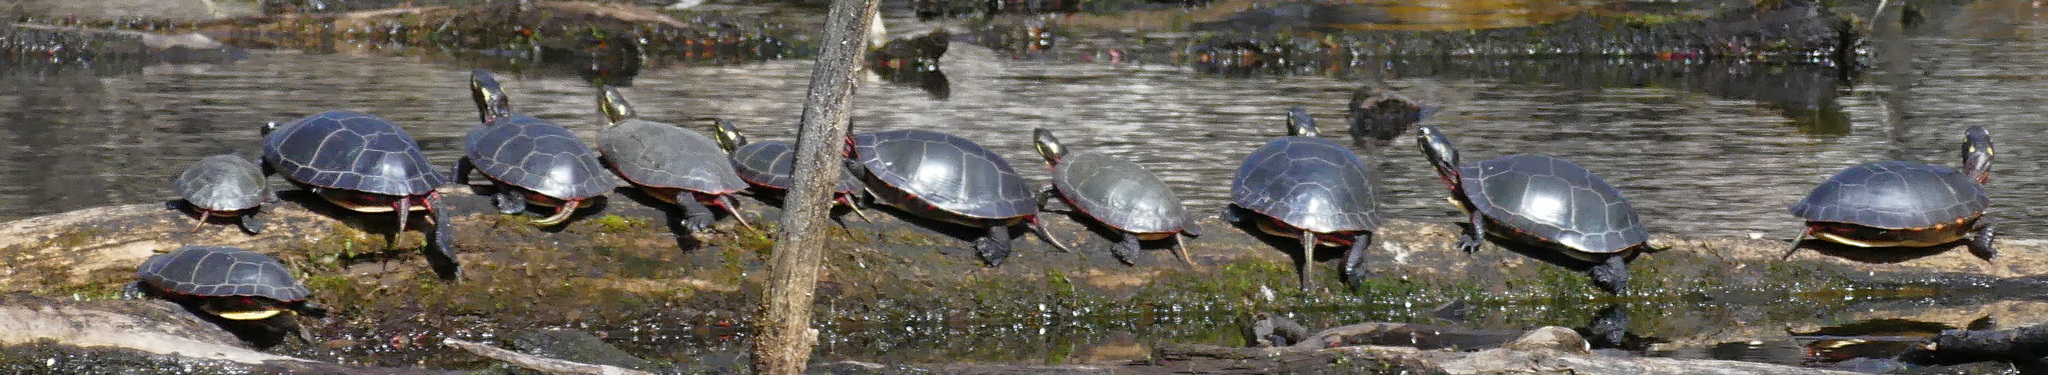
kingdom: Animalia
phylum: Chordata
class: Testudines
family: Emydidae
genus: Chrysemys
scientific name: Chrysemys picta
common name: Painted turtle
